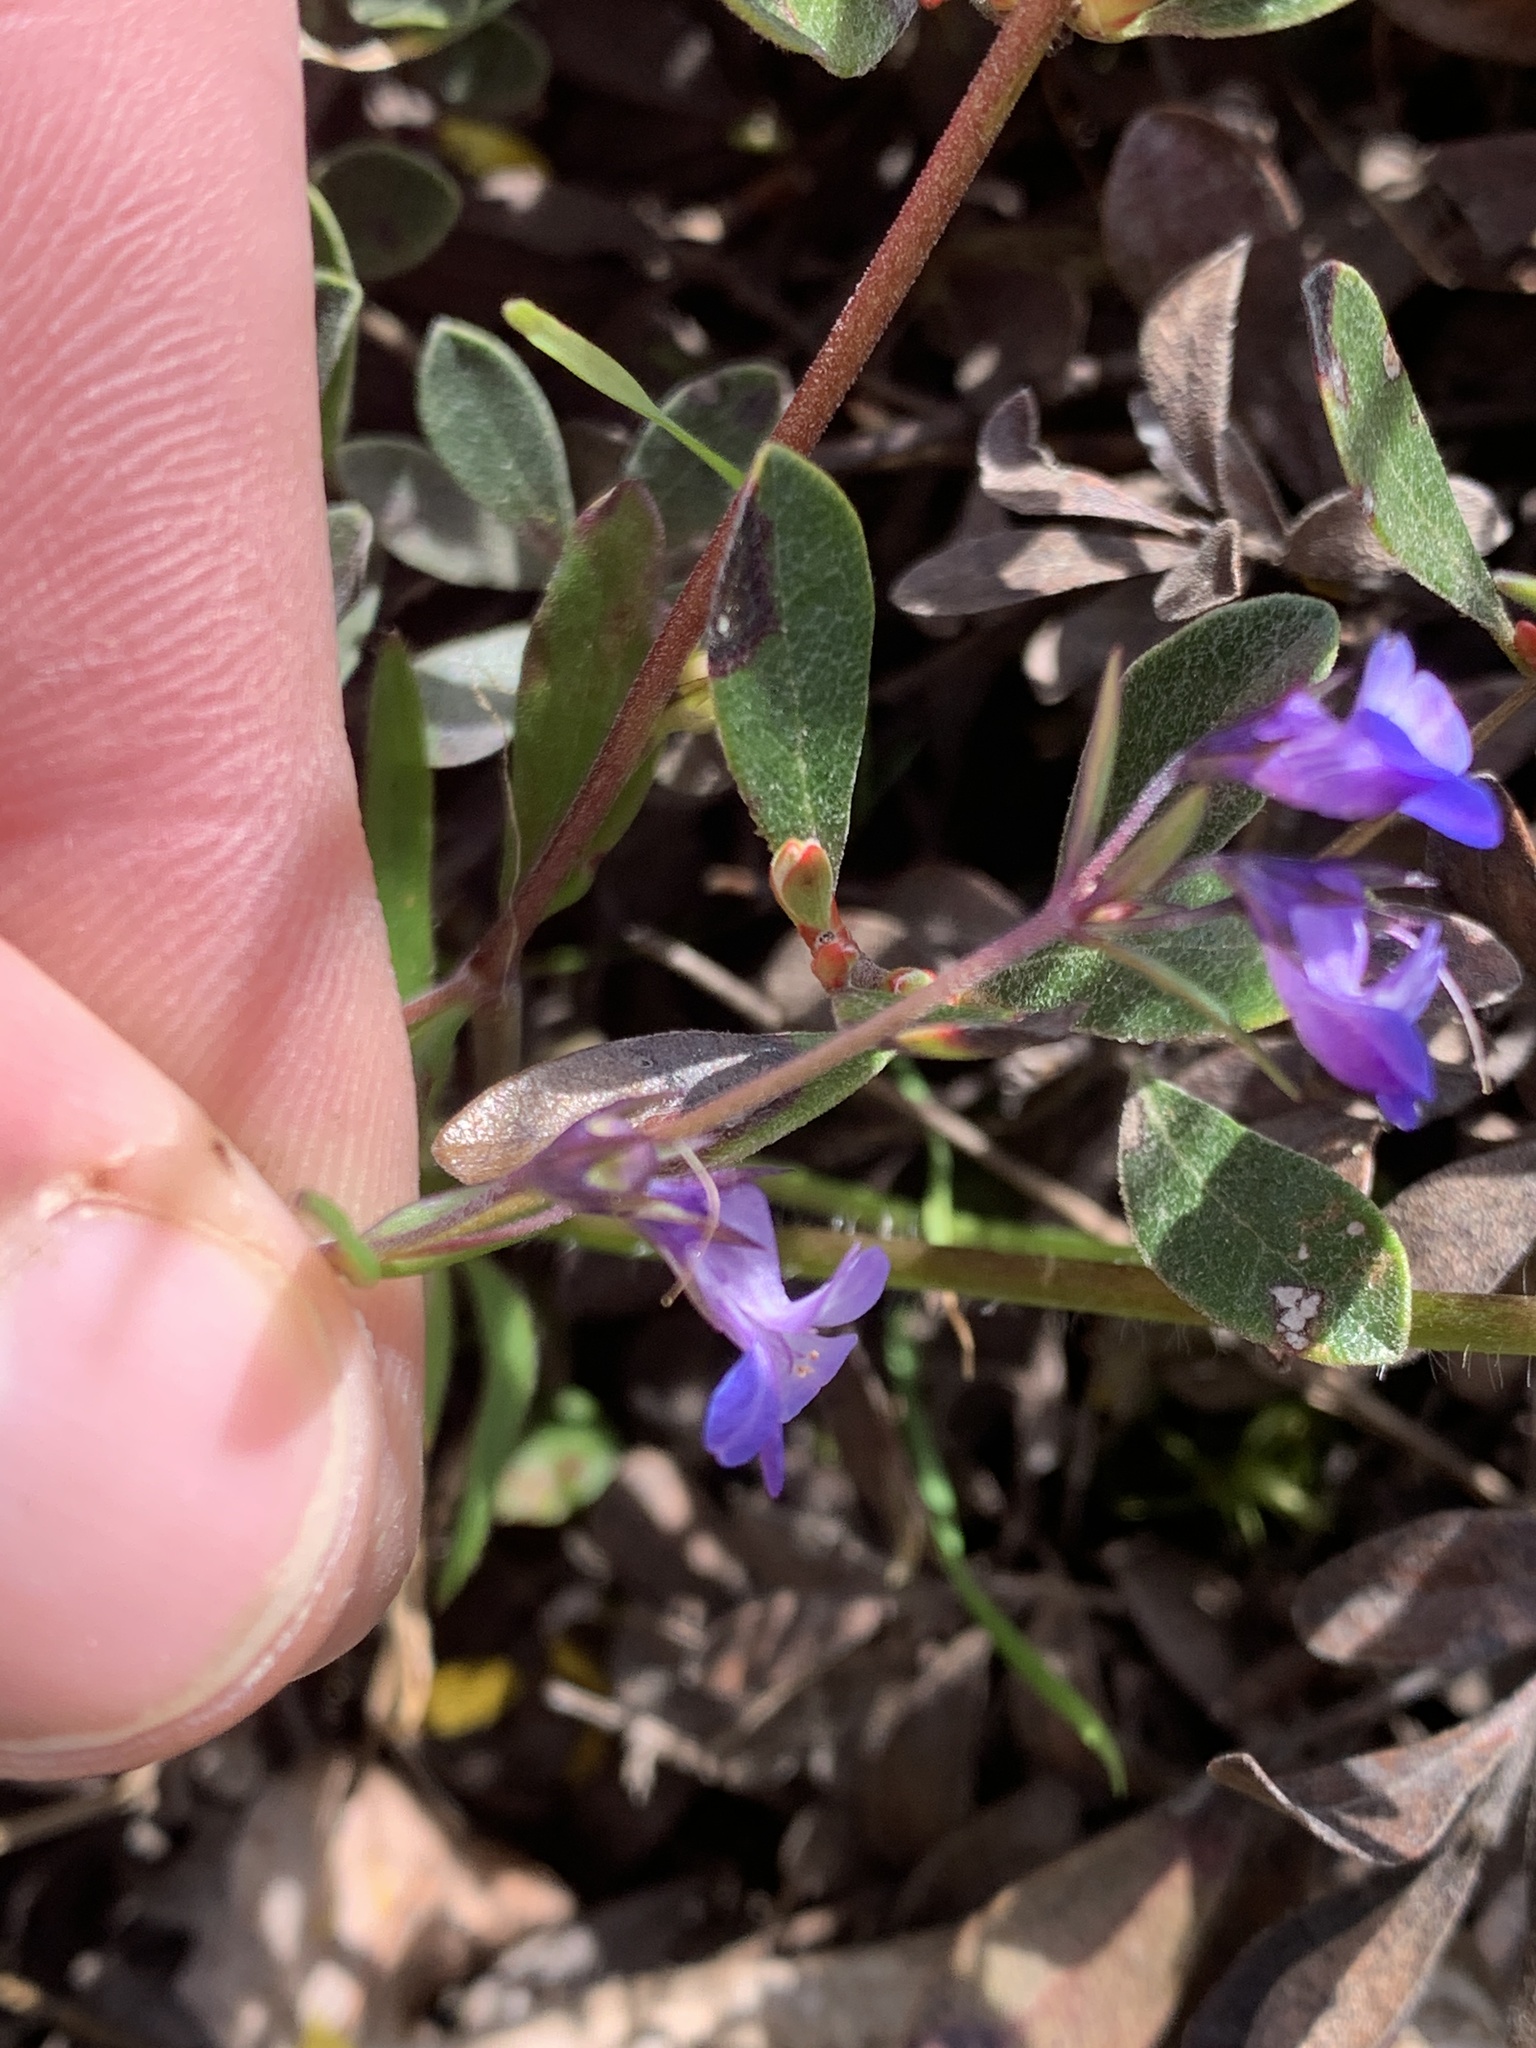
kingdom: Plantae
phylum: Tracheophyta
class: Magnoliopsida
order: Lamiales
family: Plantaginaceae
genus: Collinsia
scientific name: Collinsia grandiflora
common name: Large-flower blue-eyed-mary
